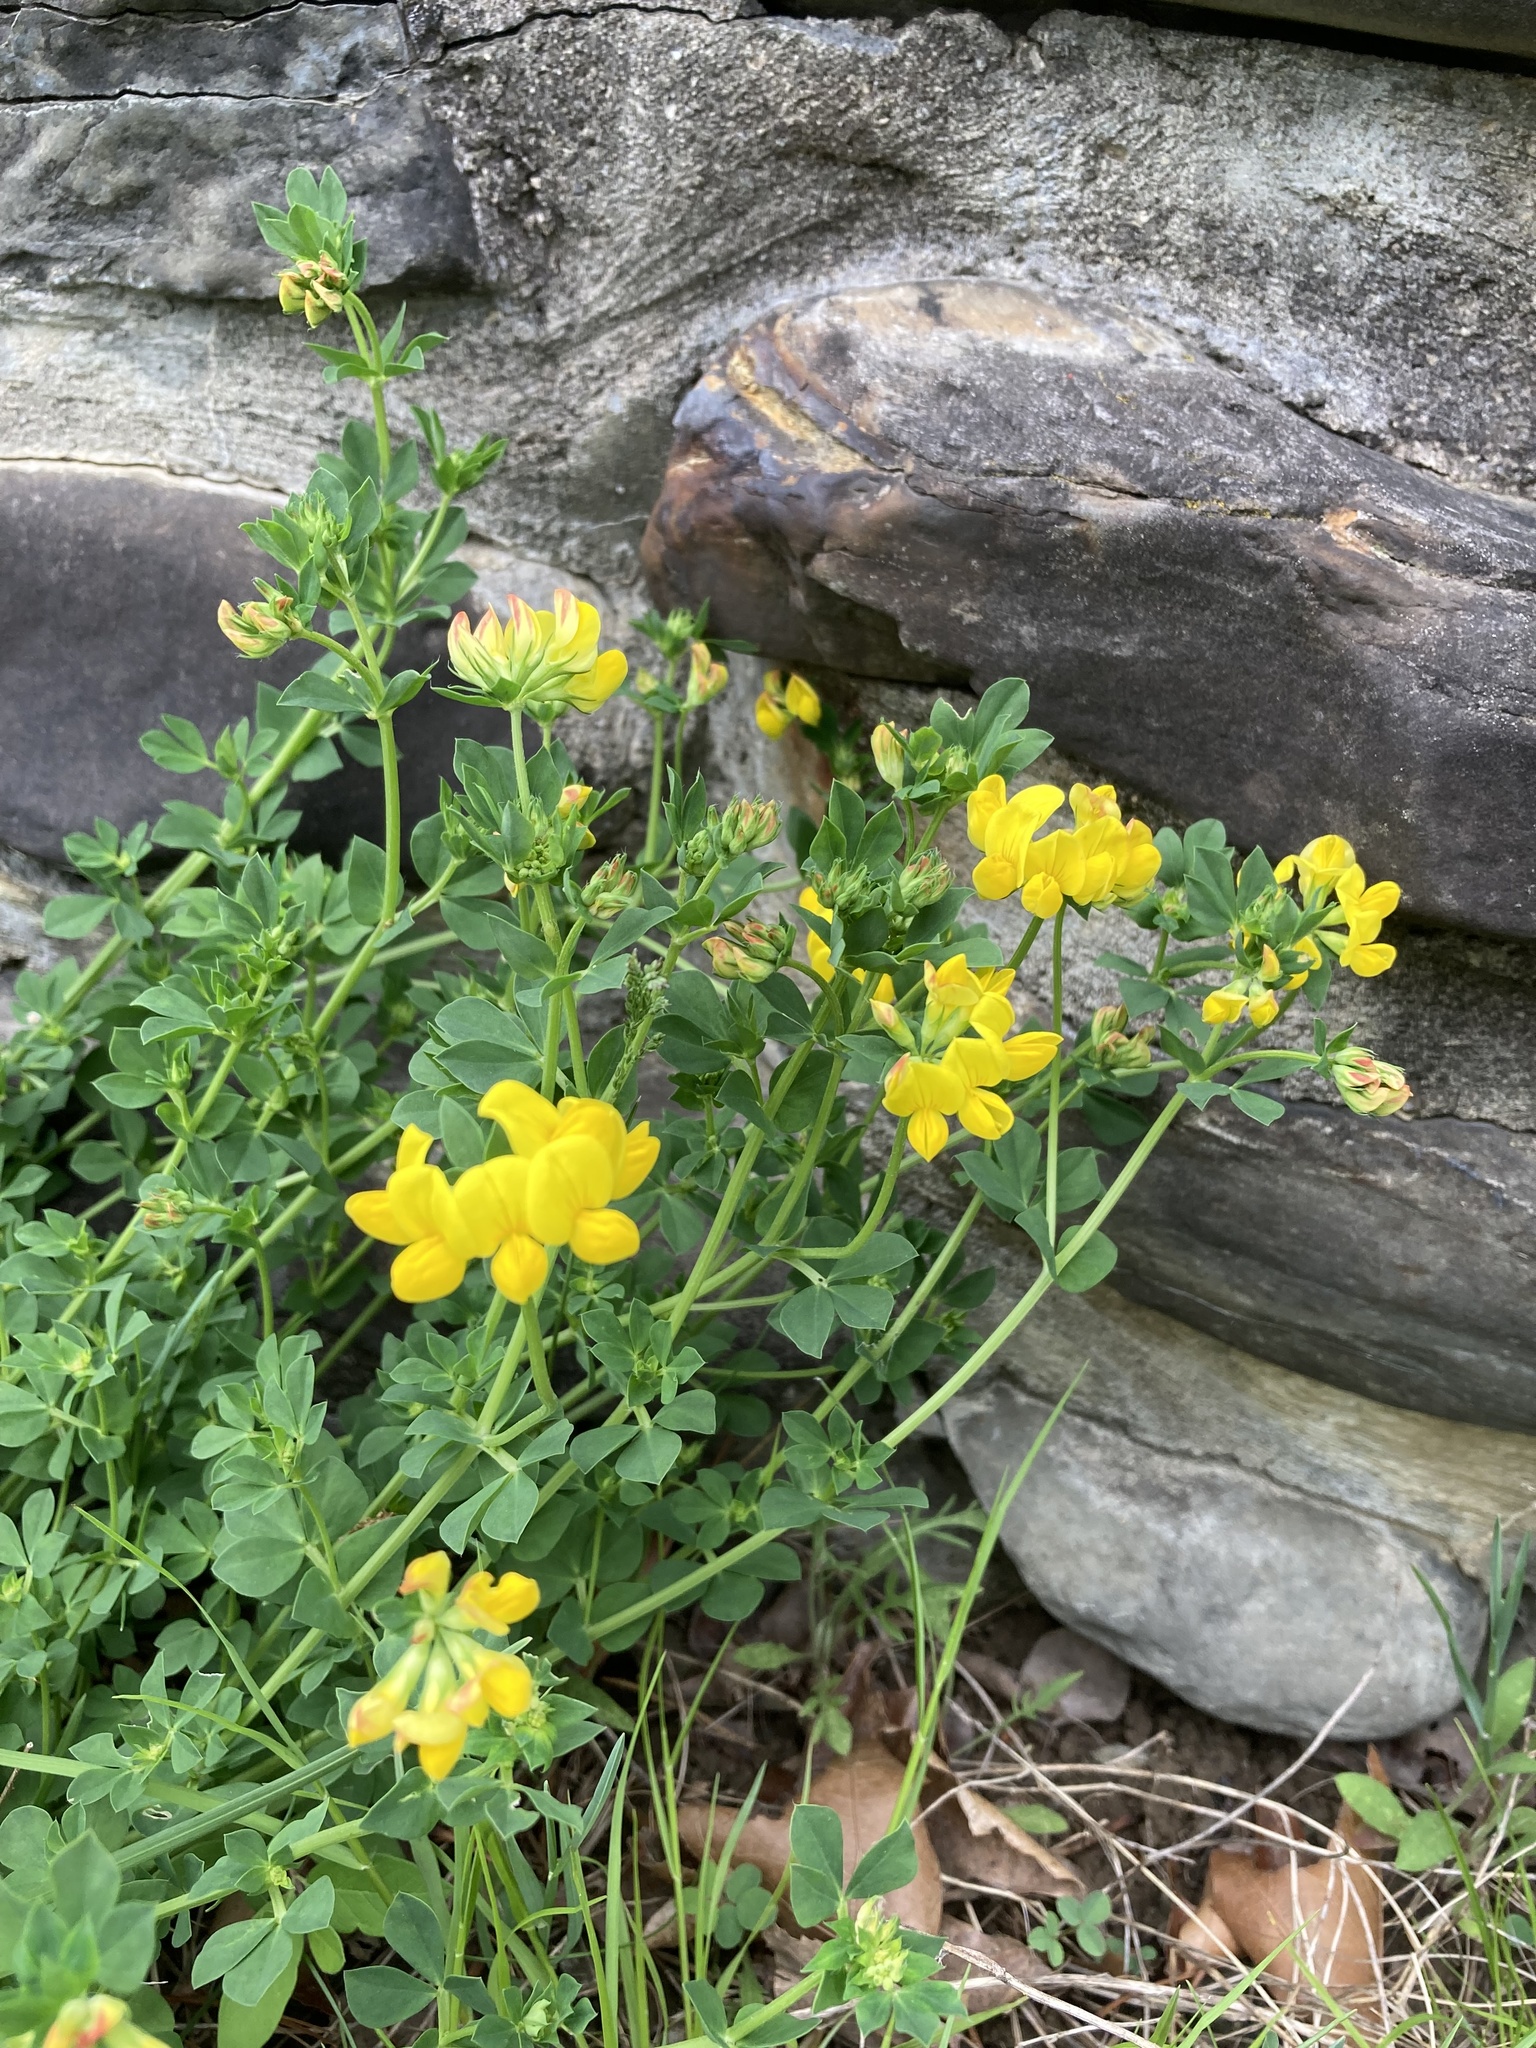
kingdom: Plantae
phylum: Tracheophyta
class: Magnoliopsida
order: Fabales
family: Fabaceae
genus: Lotus
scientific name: Lotus corniculatus
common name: Common bird's-foot-trefoil
